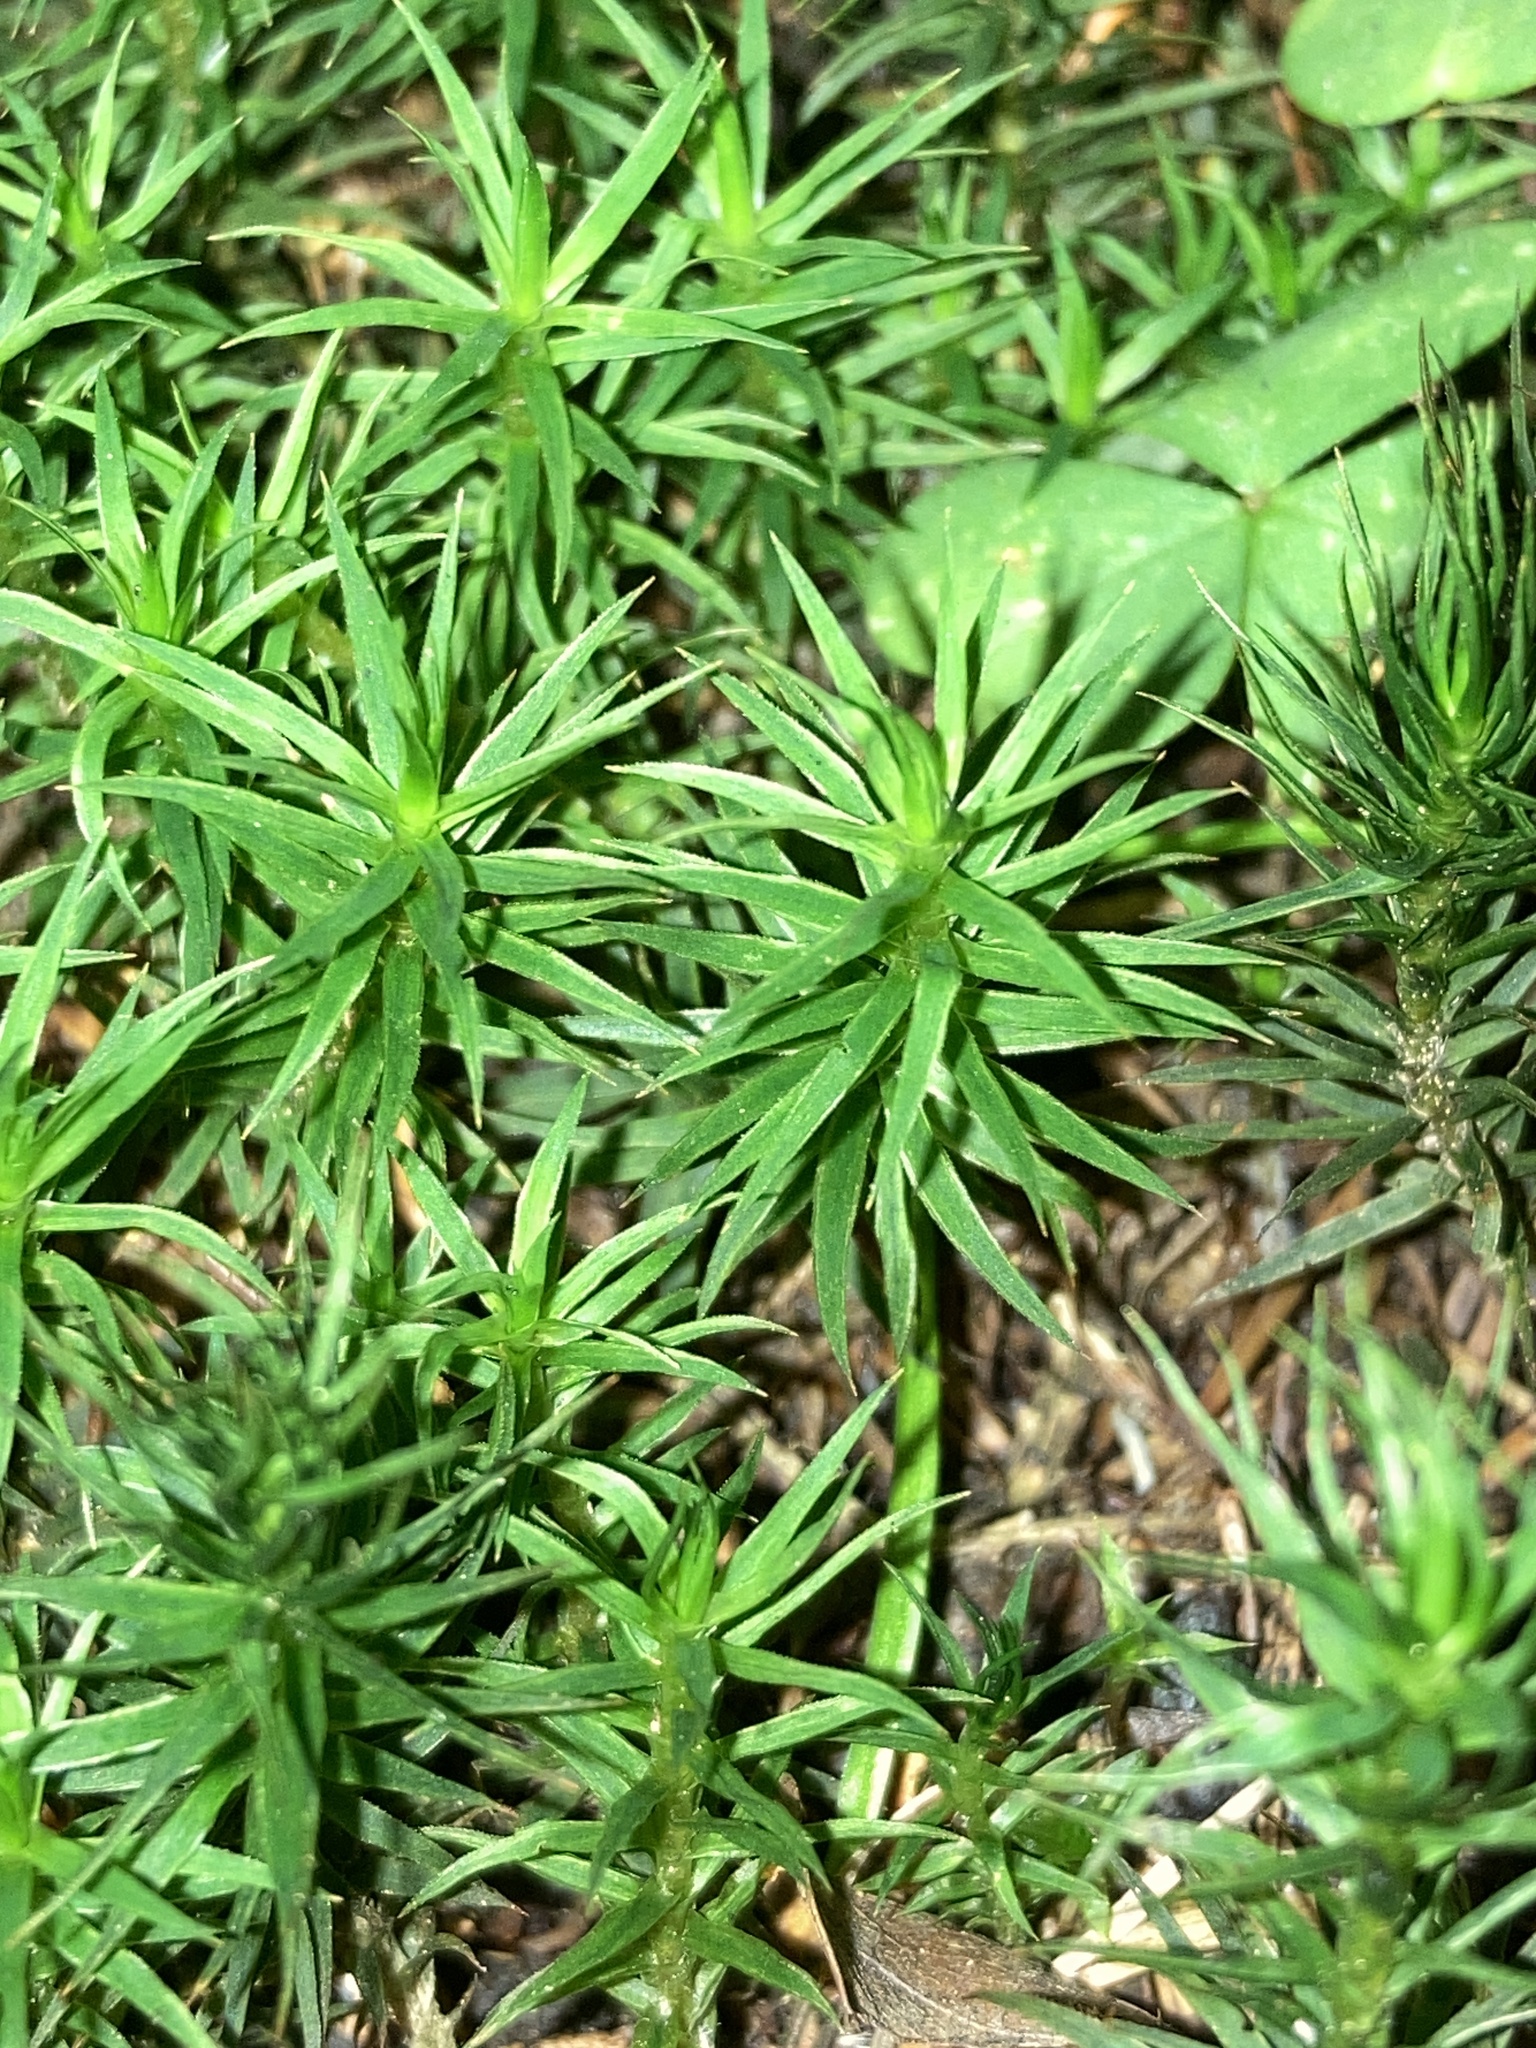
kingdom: Plantae
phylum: Bryophyta
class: Polytrichopsida
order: Polytrichales
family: Polytrichaceae
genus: Polytrichum
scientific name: Polytrichum formosum
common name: Bank haircap moss
